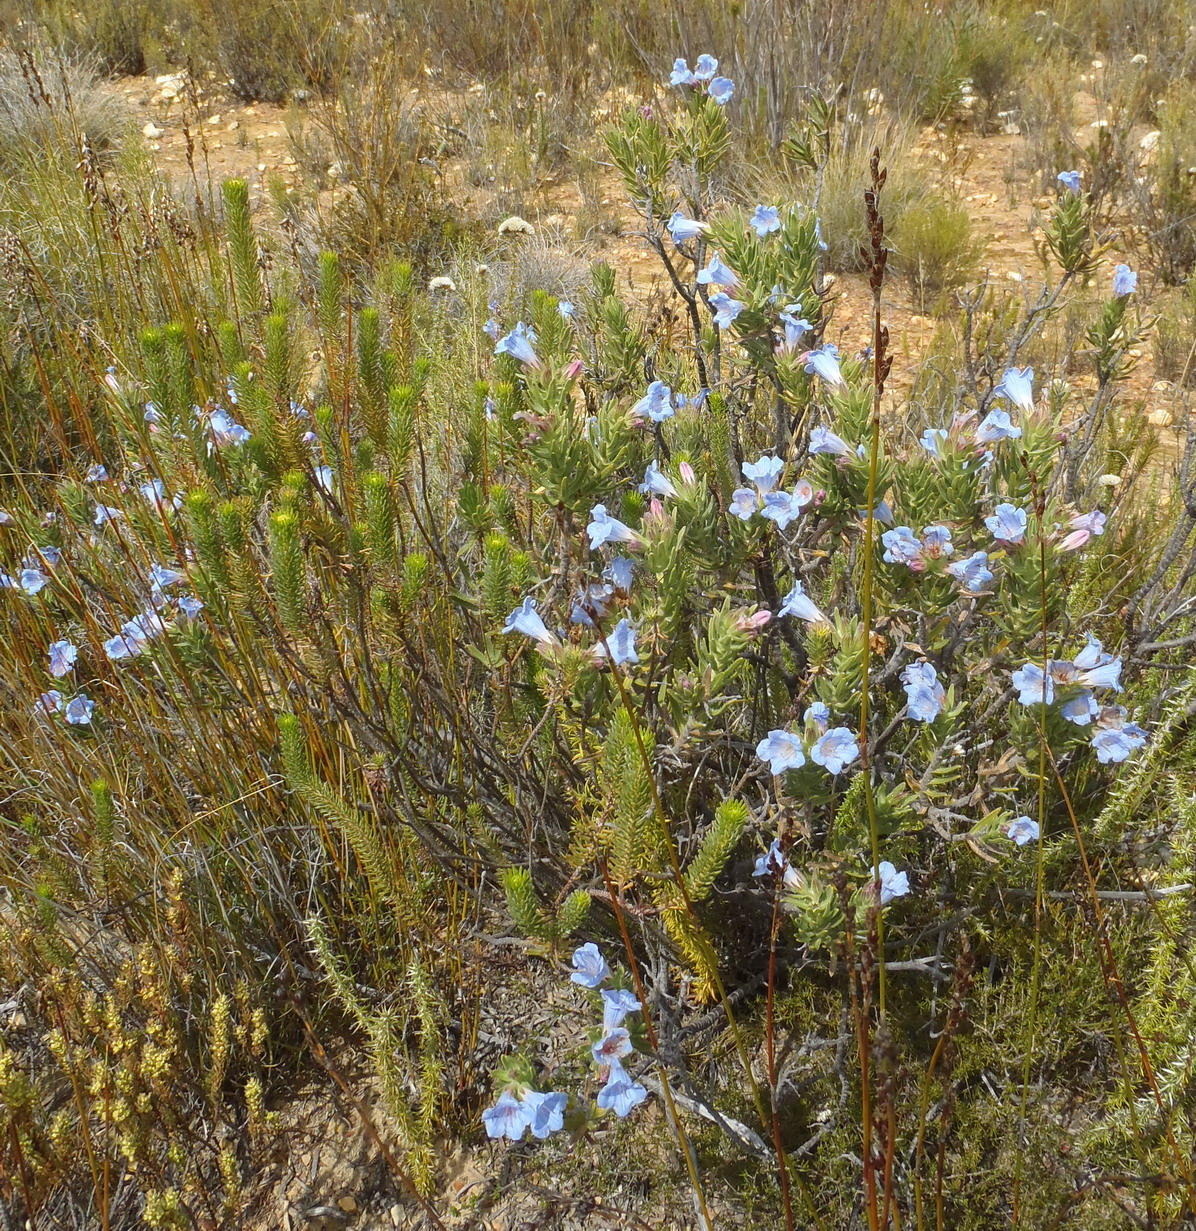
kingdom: Plantae
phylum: Tracheophyta
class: Magnoliopsida
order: Boraginales
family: Boraginaceae
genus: Lobostemon
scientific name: Lobostemon fruticosus
